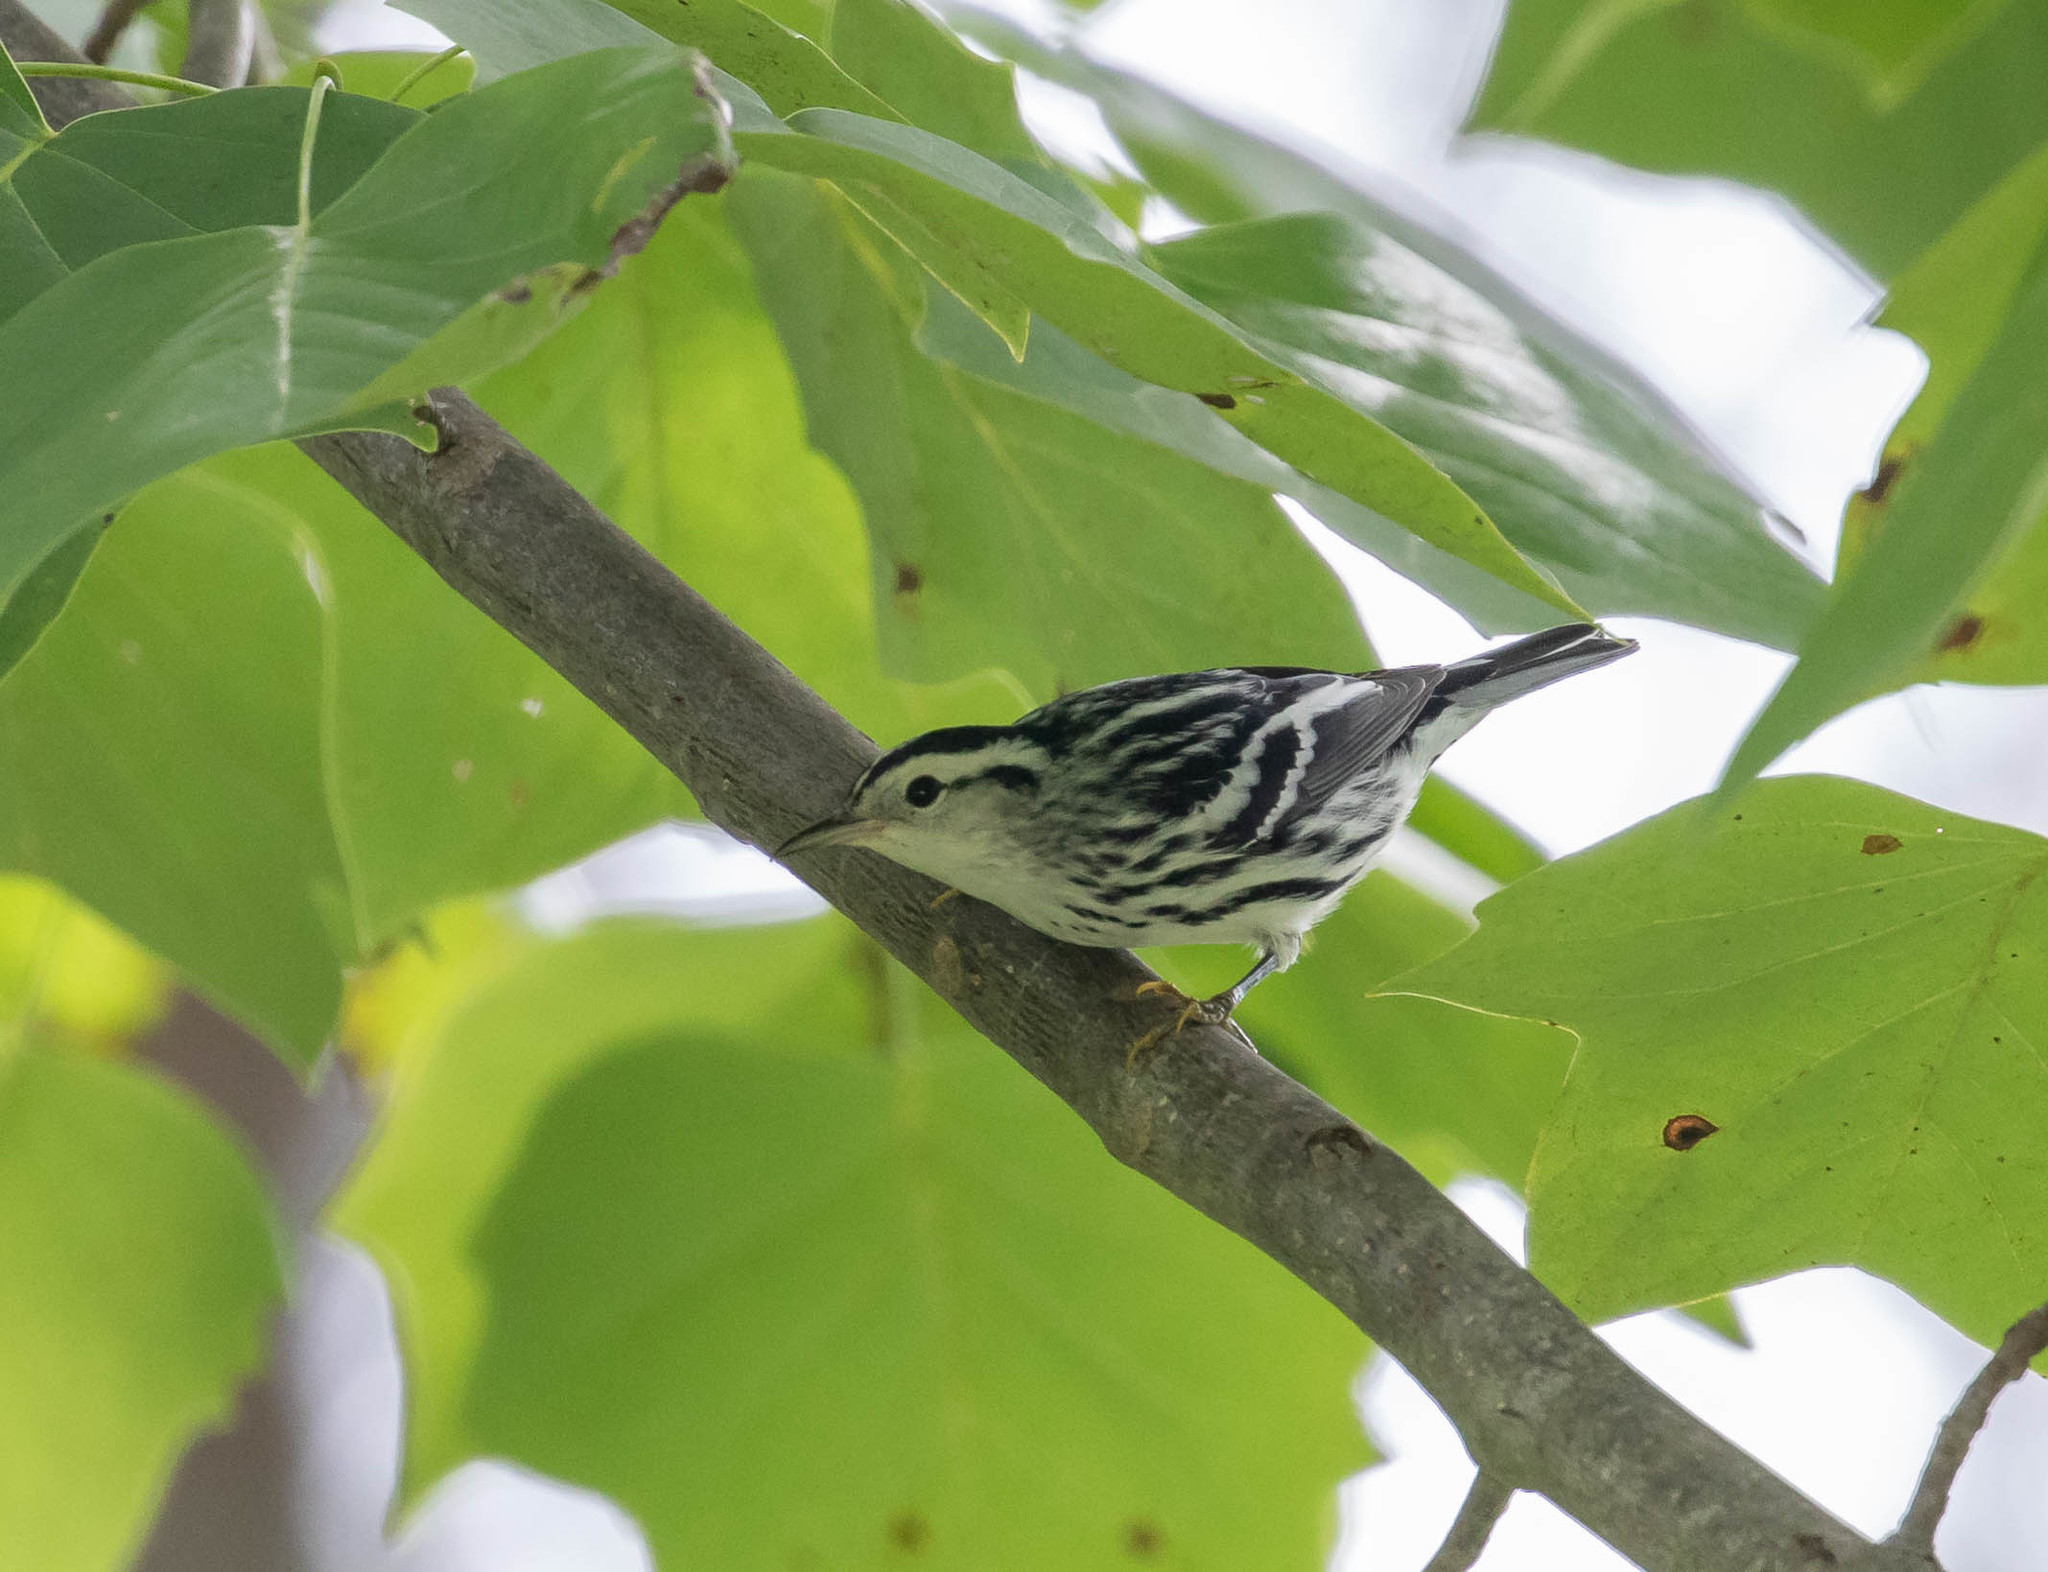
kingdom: Animalia
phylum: Chordata
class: Aves
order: Passeriformes
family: Parulidae
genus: Mniotilta
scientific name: Mniotilta varia
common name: Black-and-white warbler
